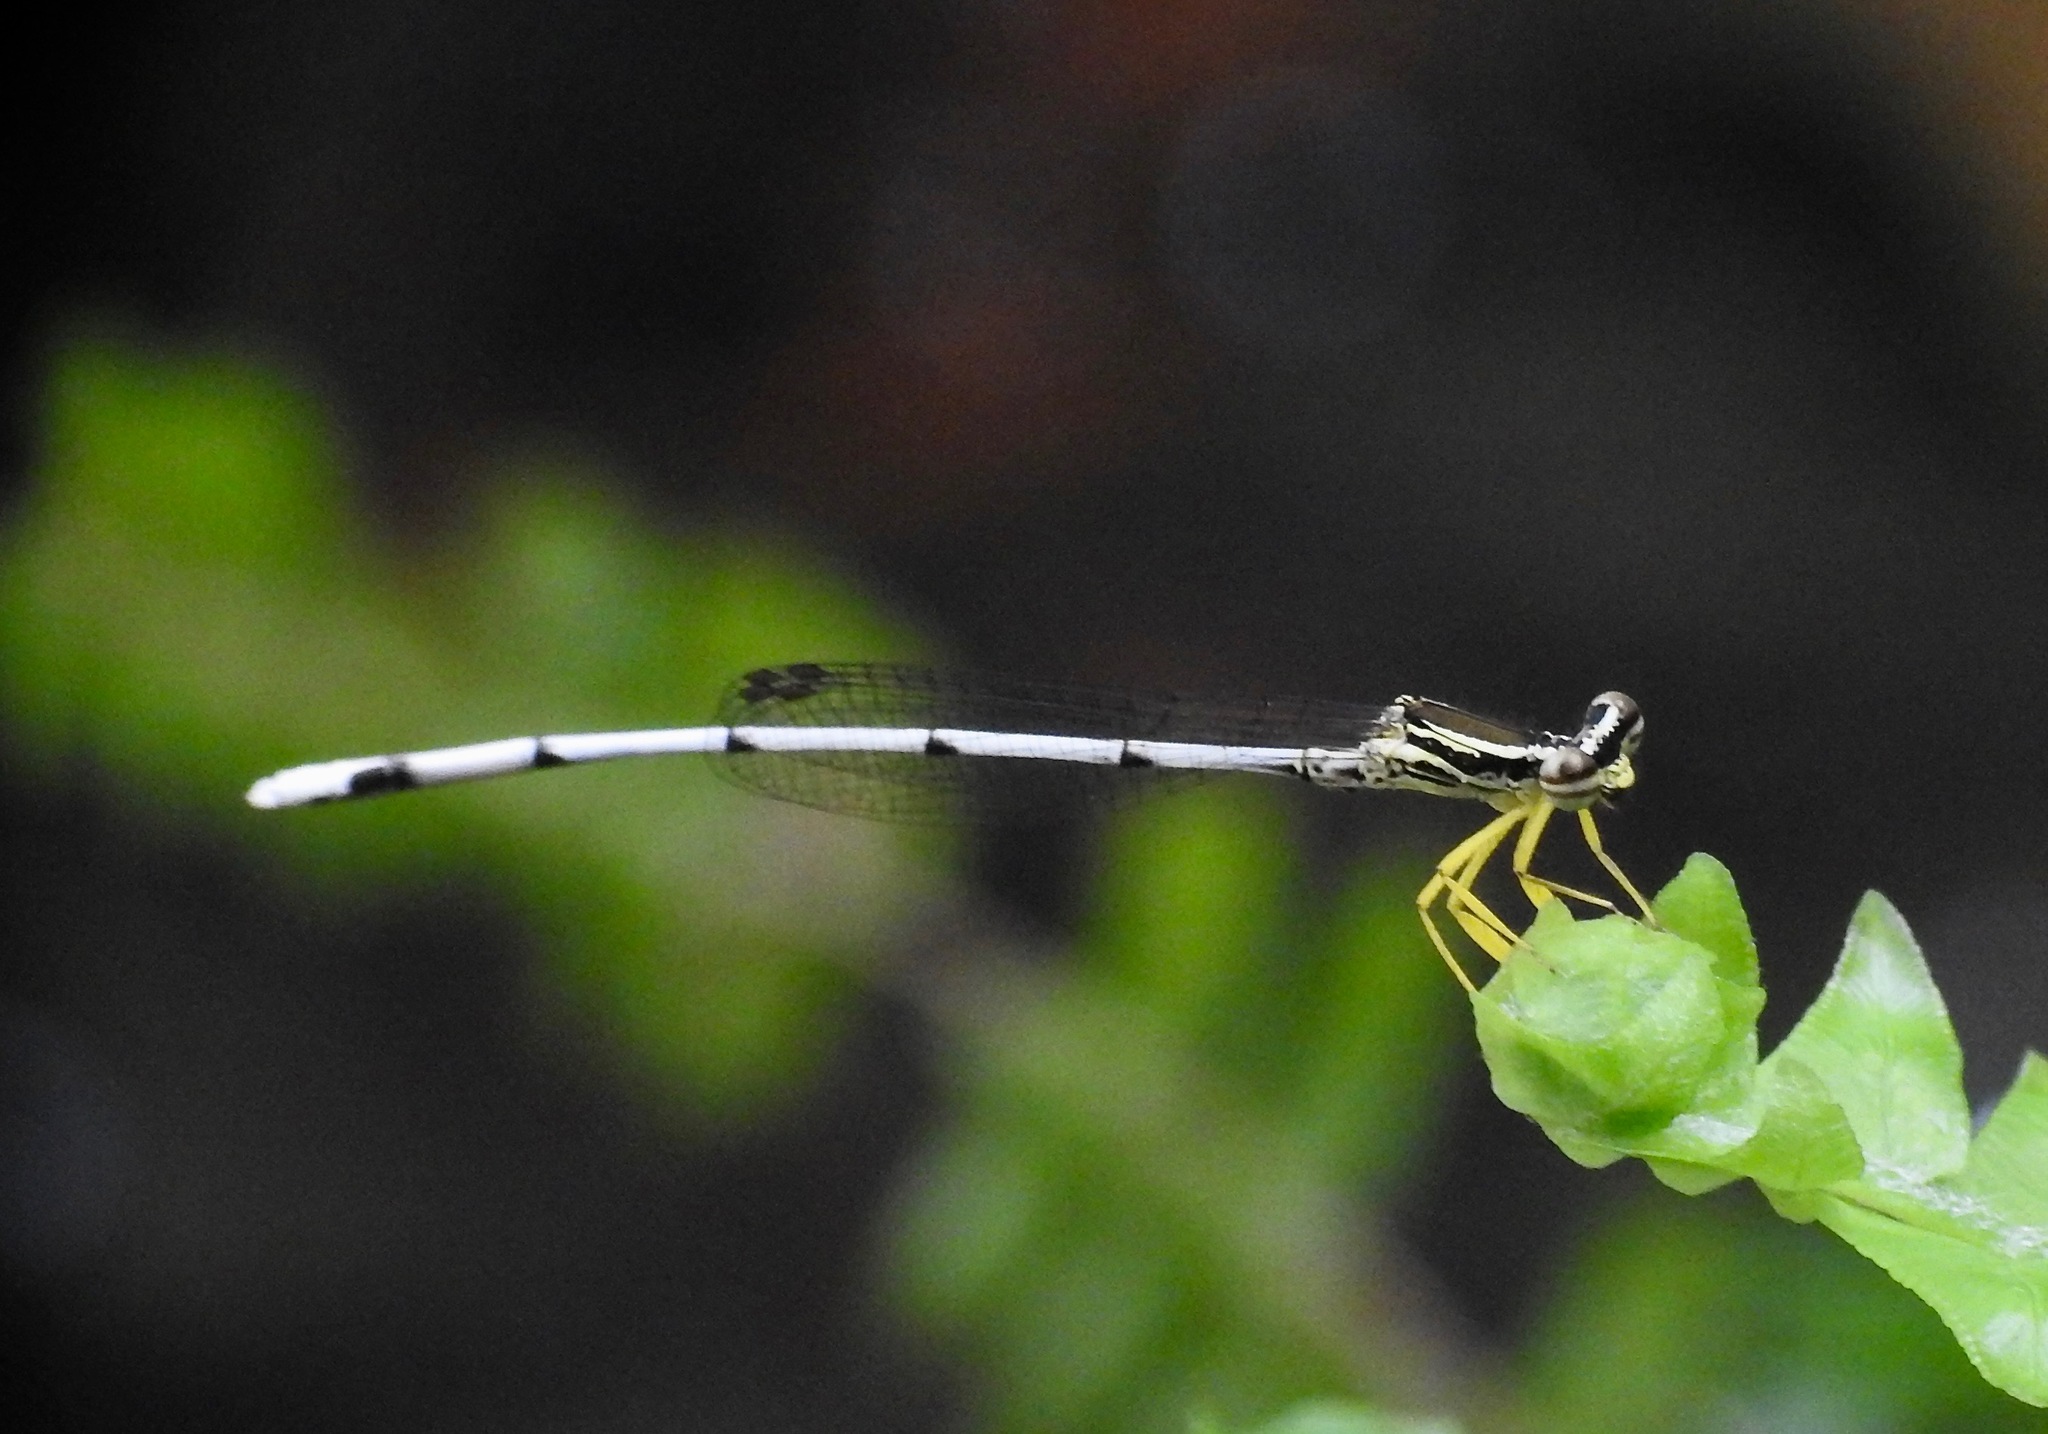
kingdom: Animalia
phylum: Arthropoda
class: Insecta
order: Odonata
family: Platycnemididae
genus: Copera
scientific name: Copera marginipes
